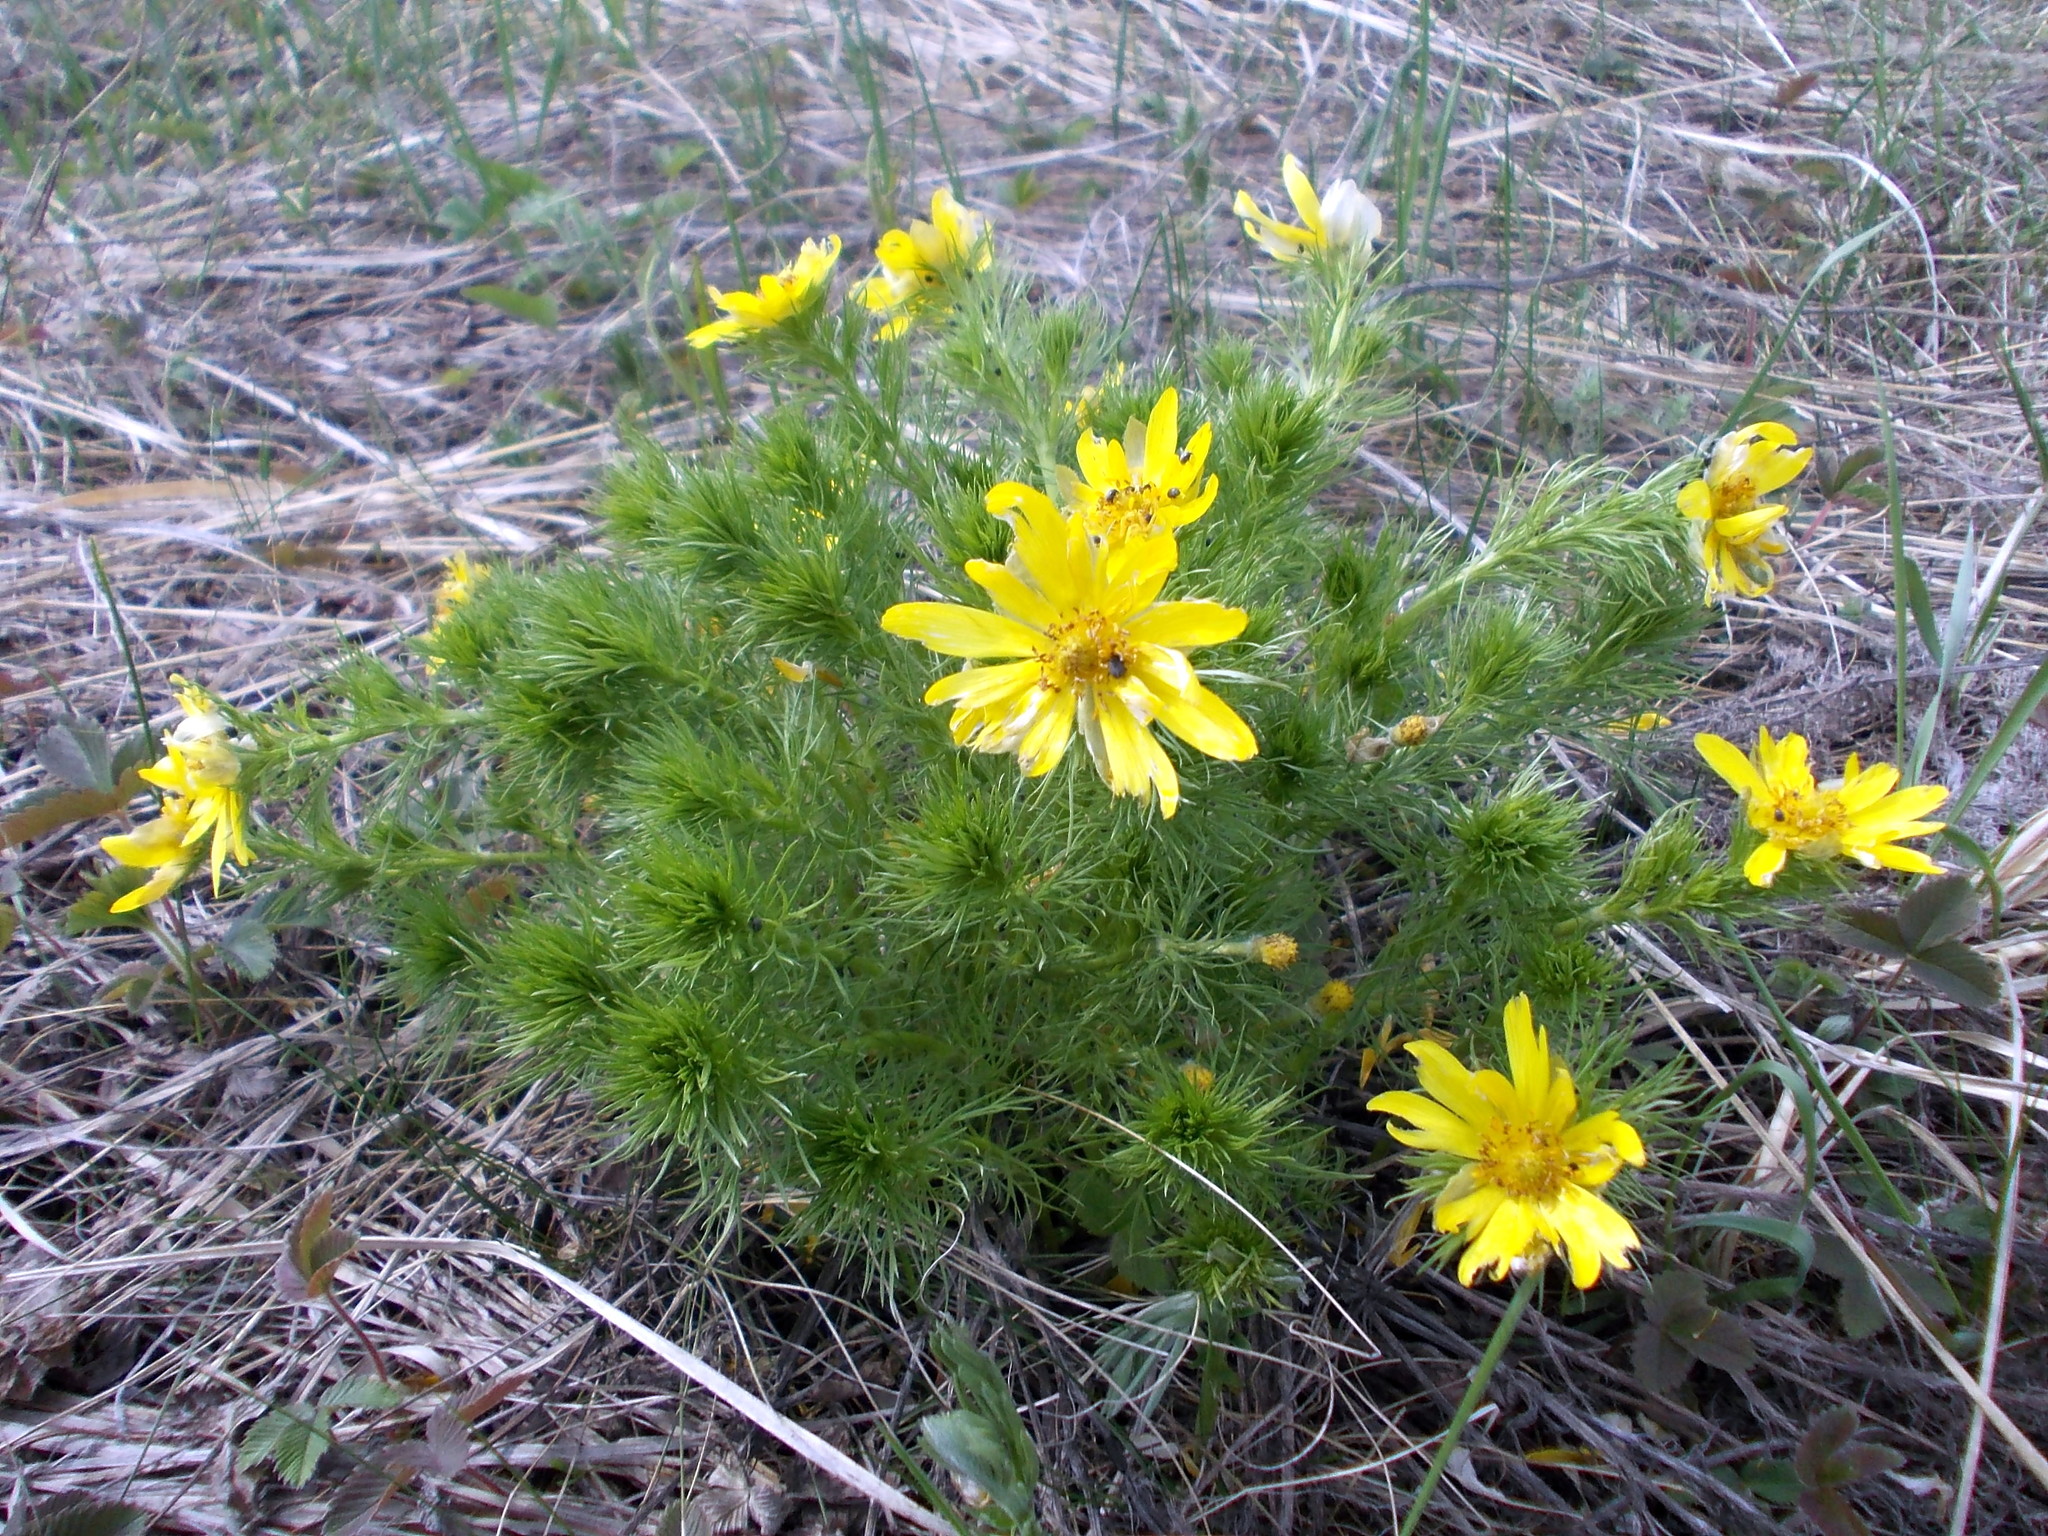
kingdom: Plantae
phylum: Tracheophyta
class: Magnoliopsida
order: Ranunculales
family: Ranunculaceae
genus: Adonis
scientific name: Adonis vernalis
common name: Yellow pheasants-eye
